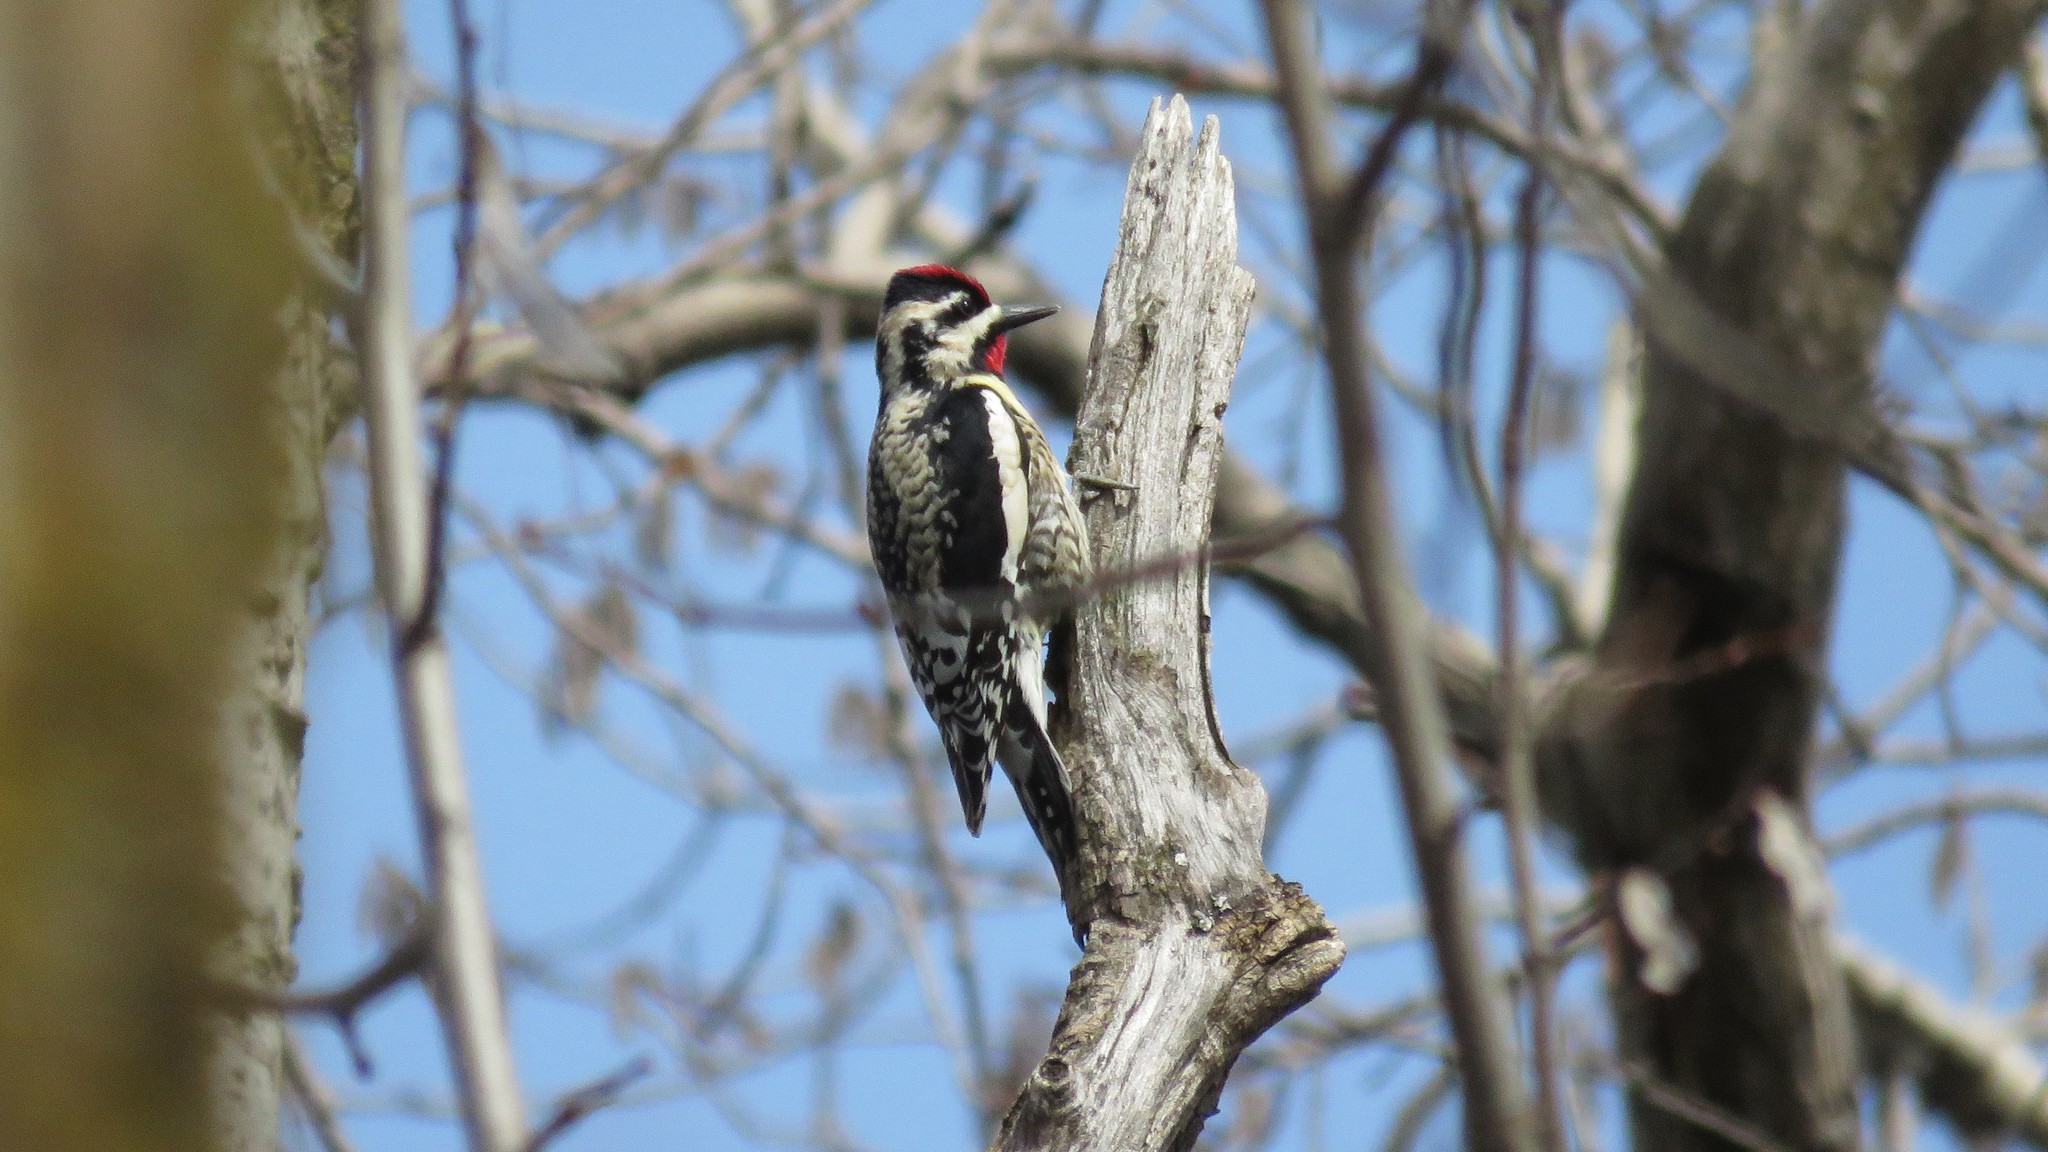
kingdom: Animalia
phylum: Chordata
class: Aves
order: Piciformes
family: Picidae
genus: Sphyrapicus
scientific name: Sphyrapicus varius
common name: Yellow-bellied sapsucker
